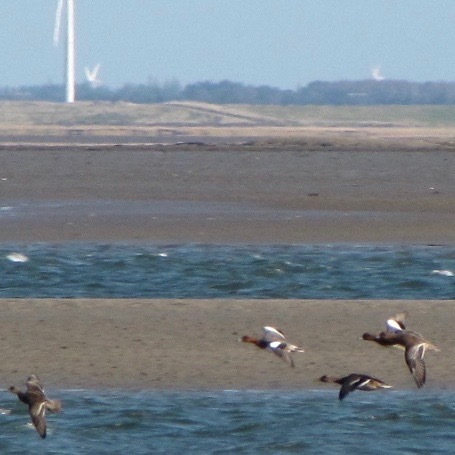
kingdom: Animalia
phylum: Chordata
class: Aves
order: Anseriformes
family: Anatidae
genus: Mareca
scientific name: Mareca penelope
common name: Eurasian wigeon
